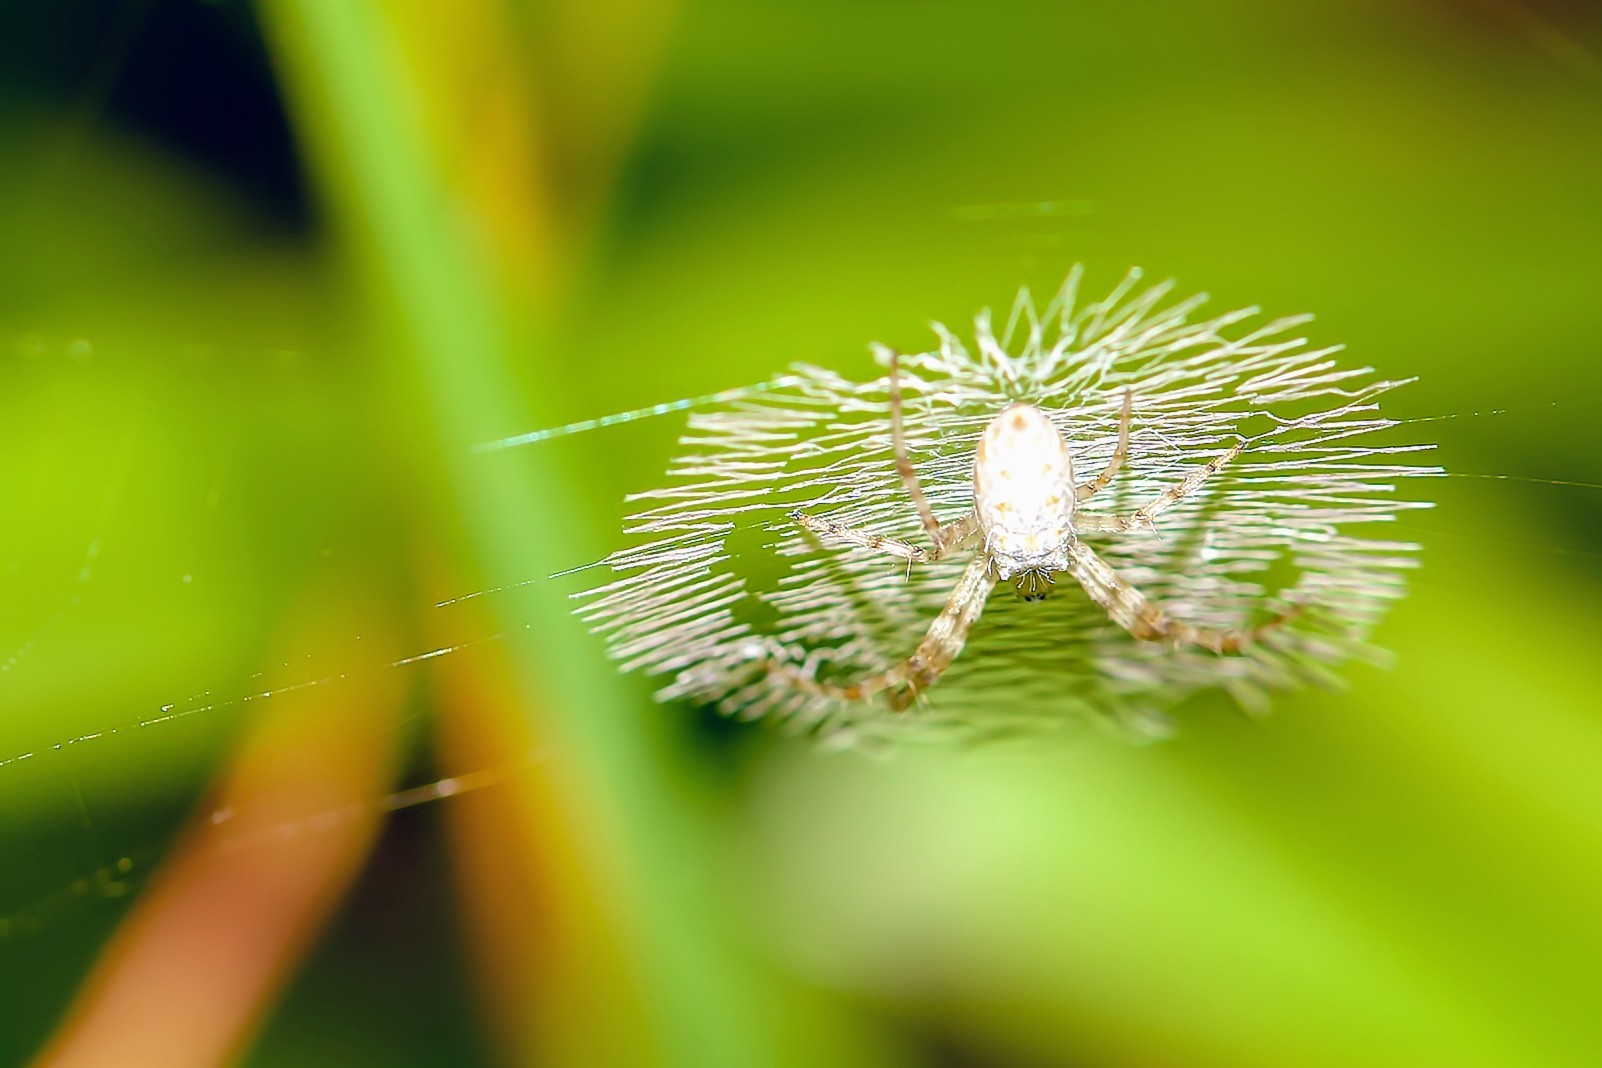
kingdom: Animalia
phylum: Arthropoda
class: Arachnida
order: Araneae
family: Araneidae
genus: Argiope
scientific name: Argiope aurantia
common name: Orb weavers
